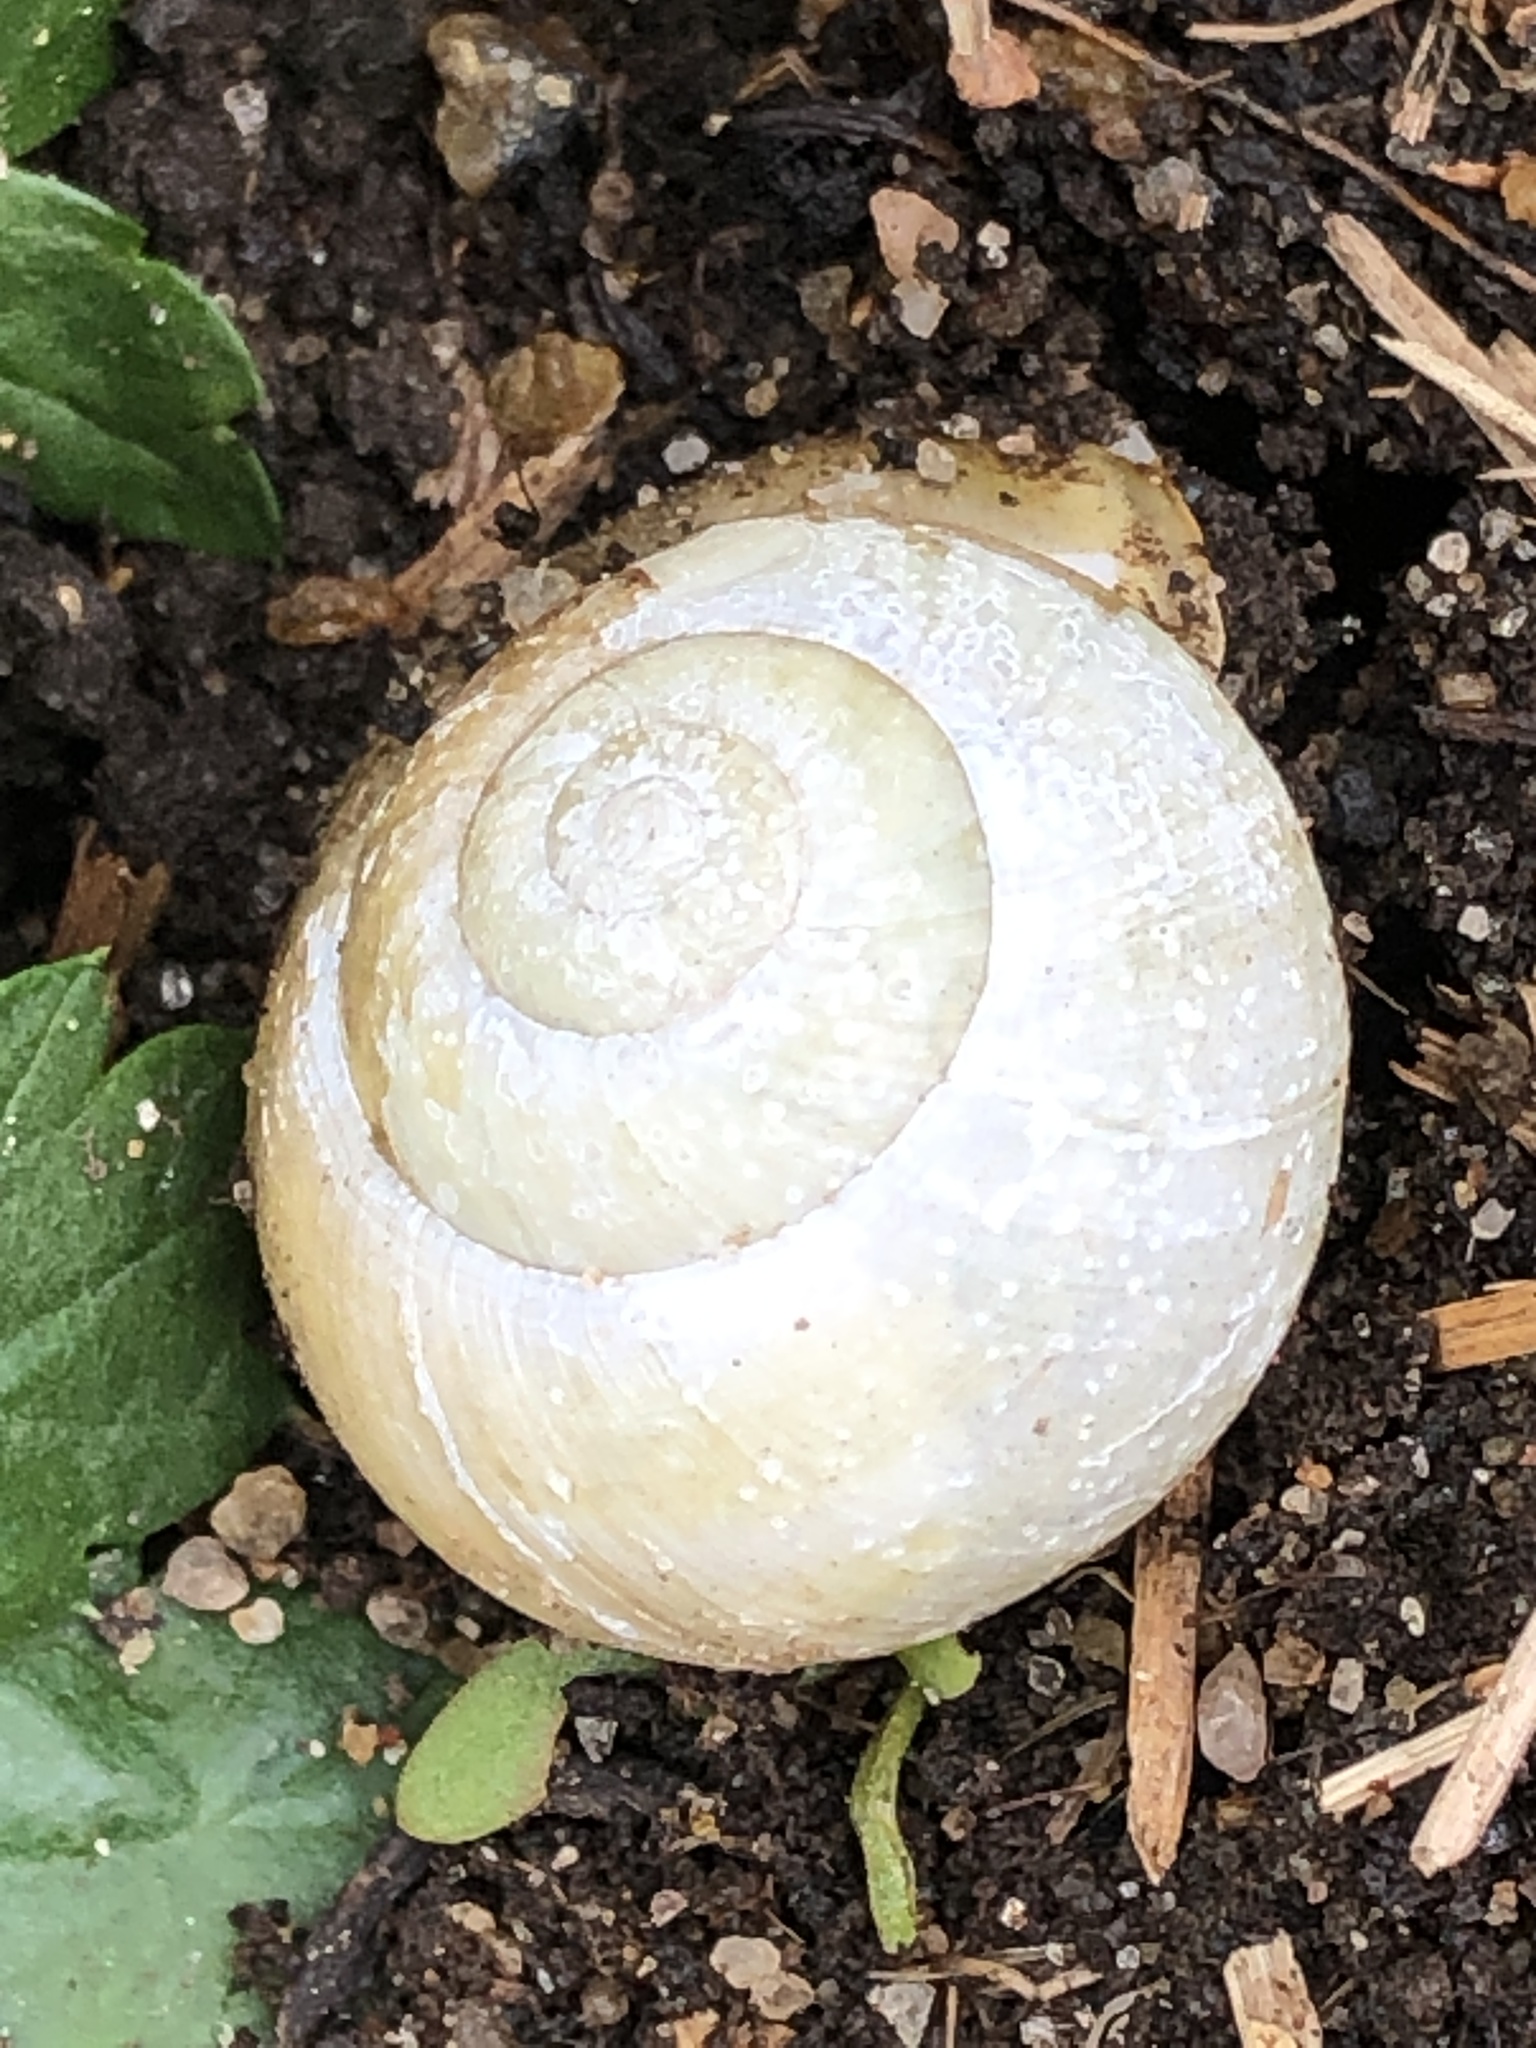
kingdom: Animalia
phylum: Mollusca
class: Gastropoda
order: Stylommatophora
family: Helicidae
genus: Cepaea
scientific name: Cepaea hortensis
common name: White-lip gardensnail
